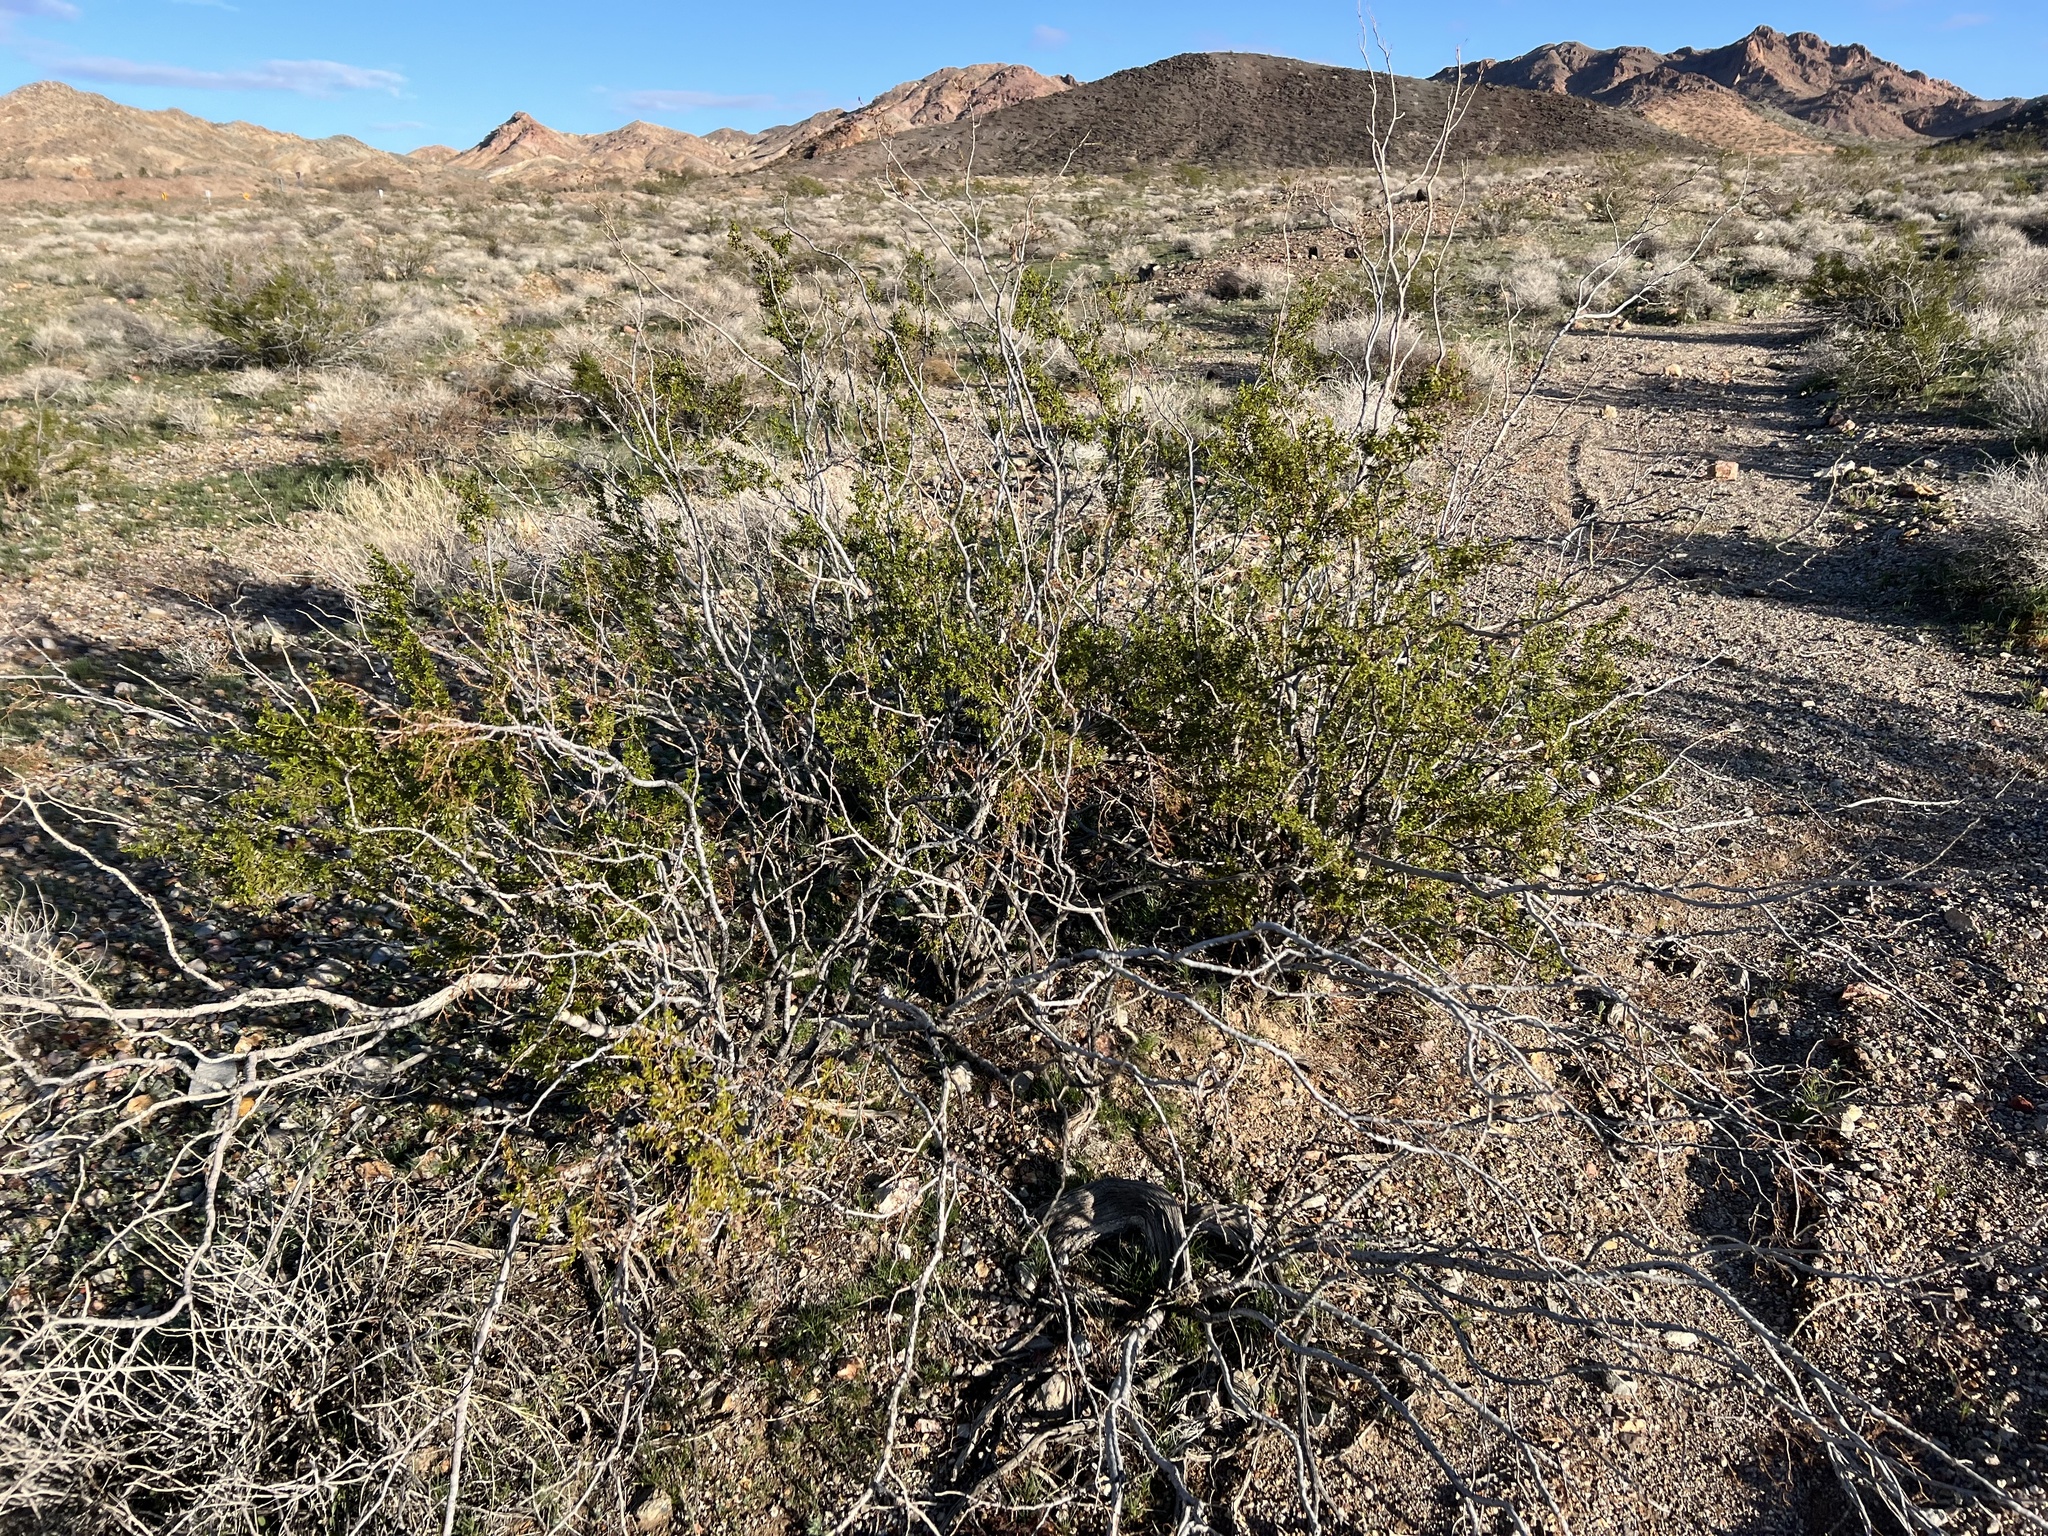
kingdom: Plantae
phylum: Tracheophyta
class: Magnoliopsida
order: Zygophyllales
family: Zygophyllaceae
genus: Larrea
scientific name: Larrea tridentata
